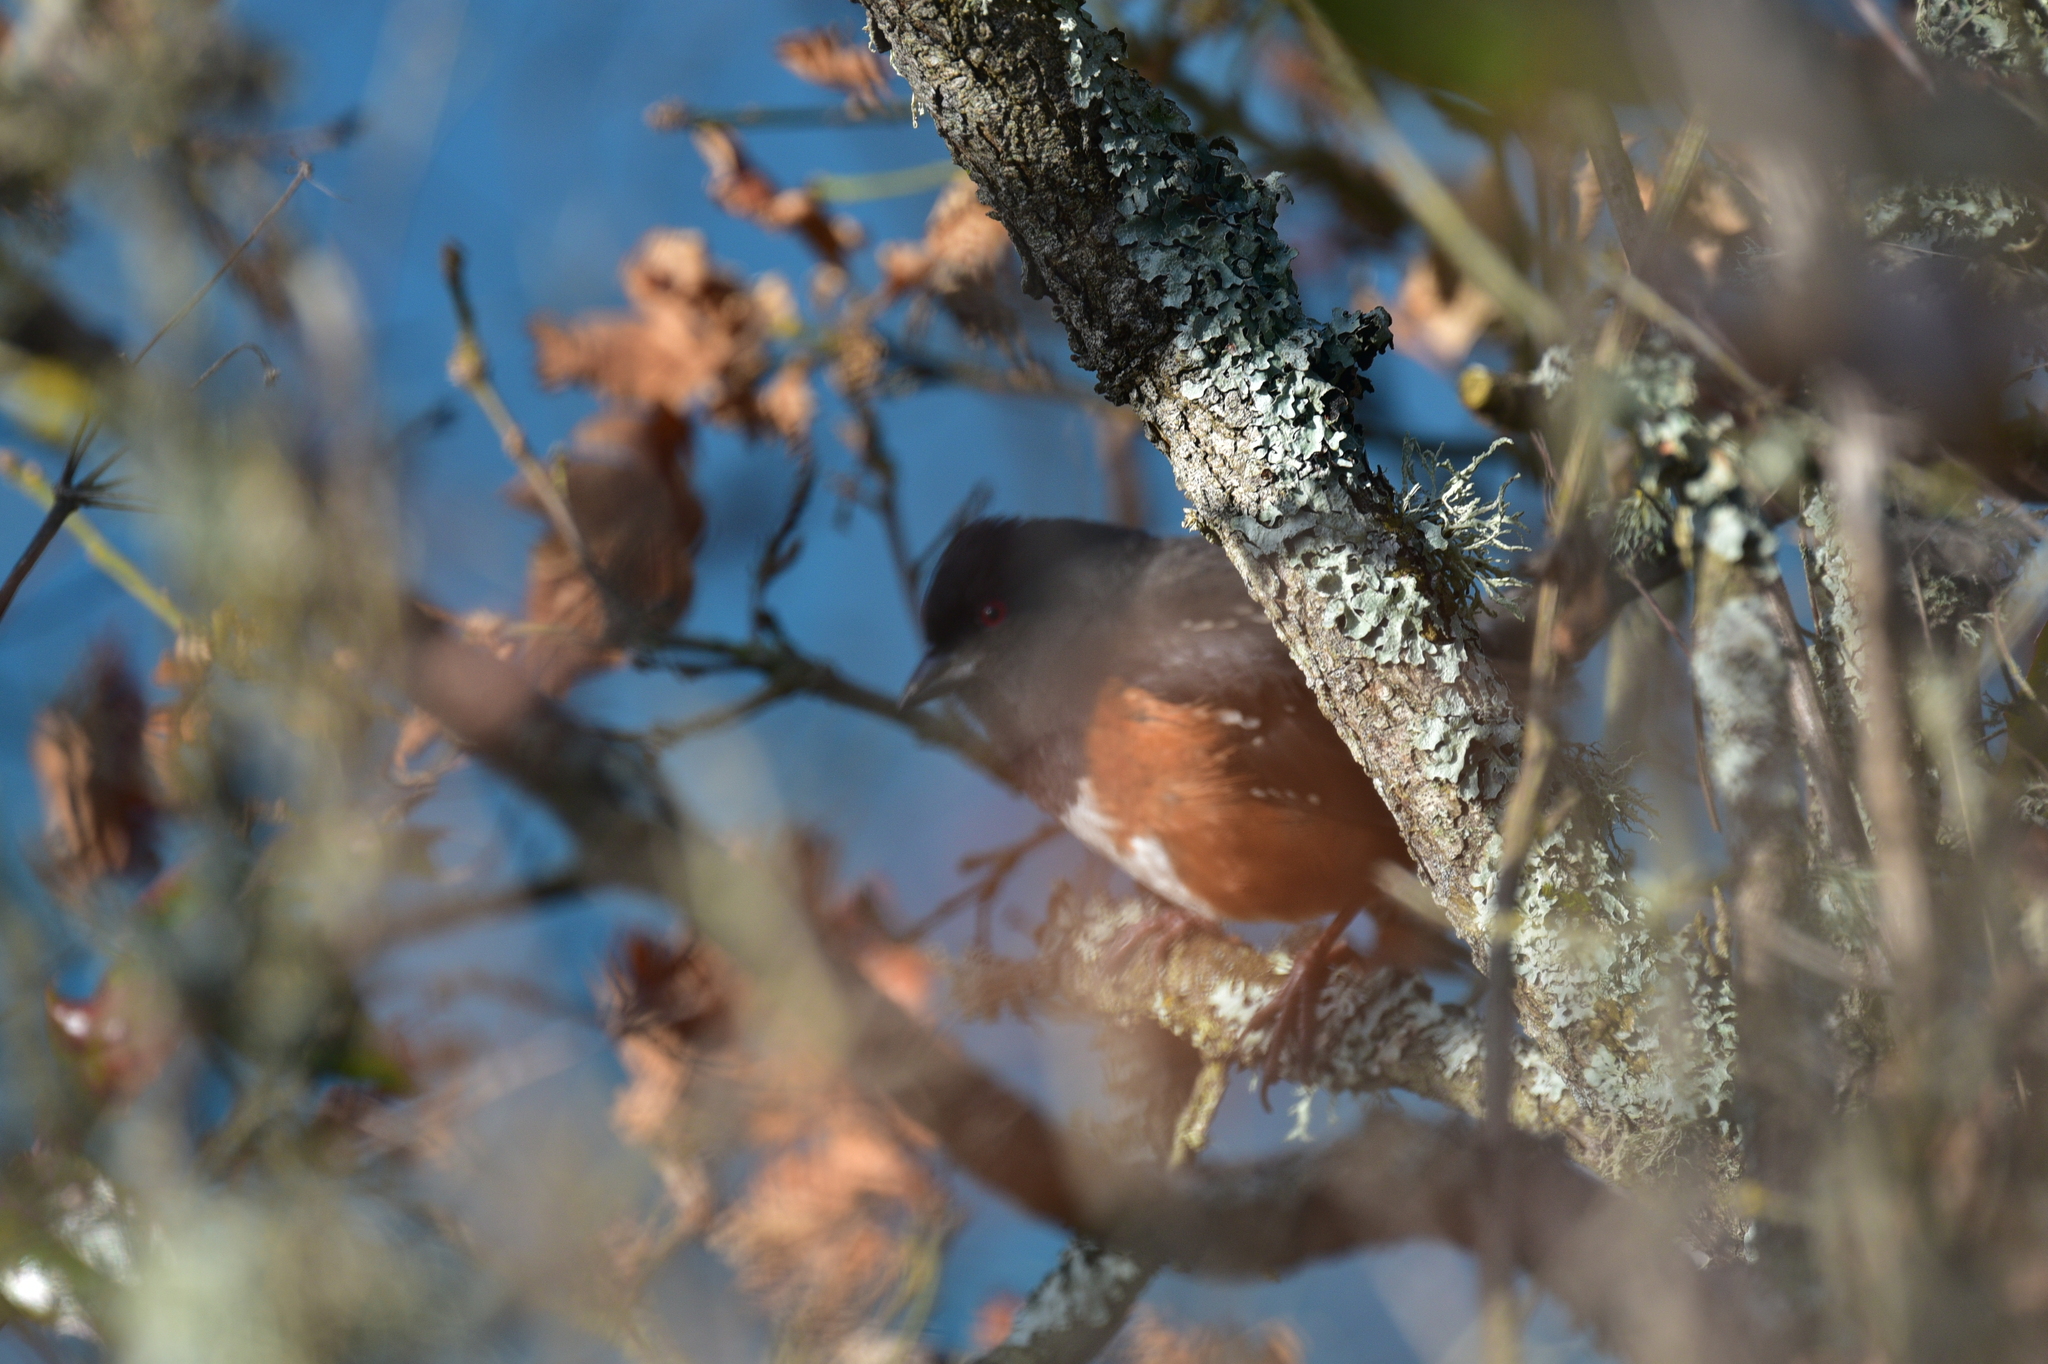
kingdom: Animalia
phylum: Chordata
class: Aves
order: Passeriformes
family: Passerellidae
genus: Pipilo
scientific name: Pipilo maculatus
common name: Spotted towhee
